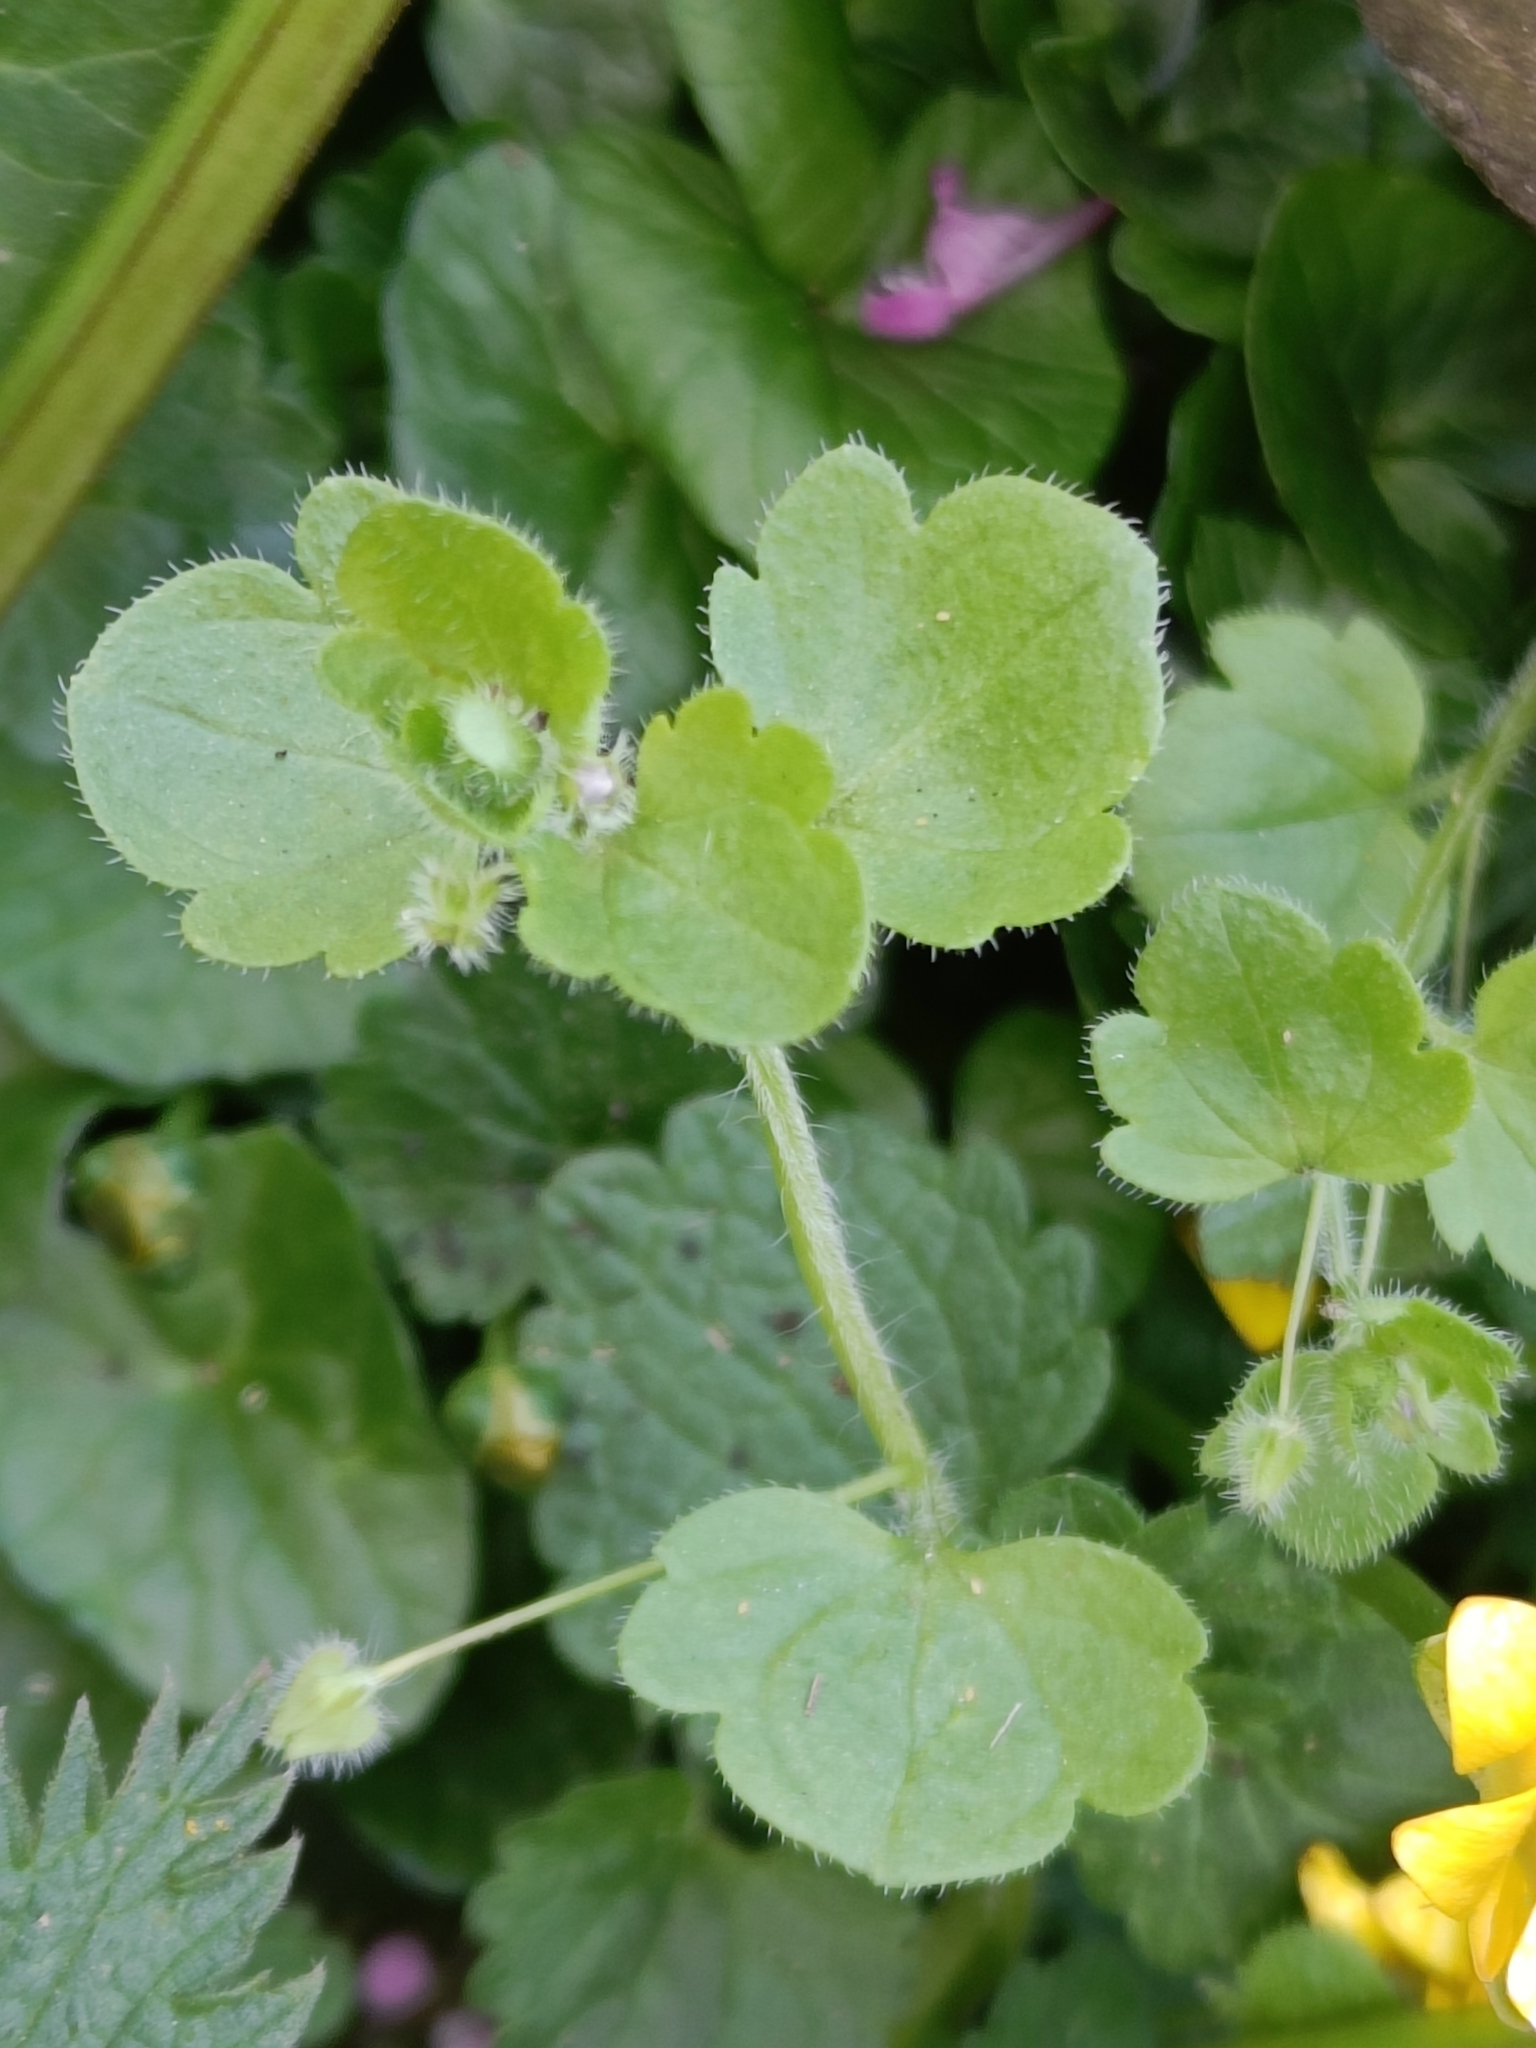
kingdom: Plantae
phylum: Tracheophyta
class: Magnoliopsida
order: Ranunculales
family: Ranunculaceae
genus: Ficaria
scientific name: Ficaria verna
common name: Lesser celandine
